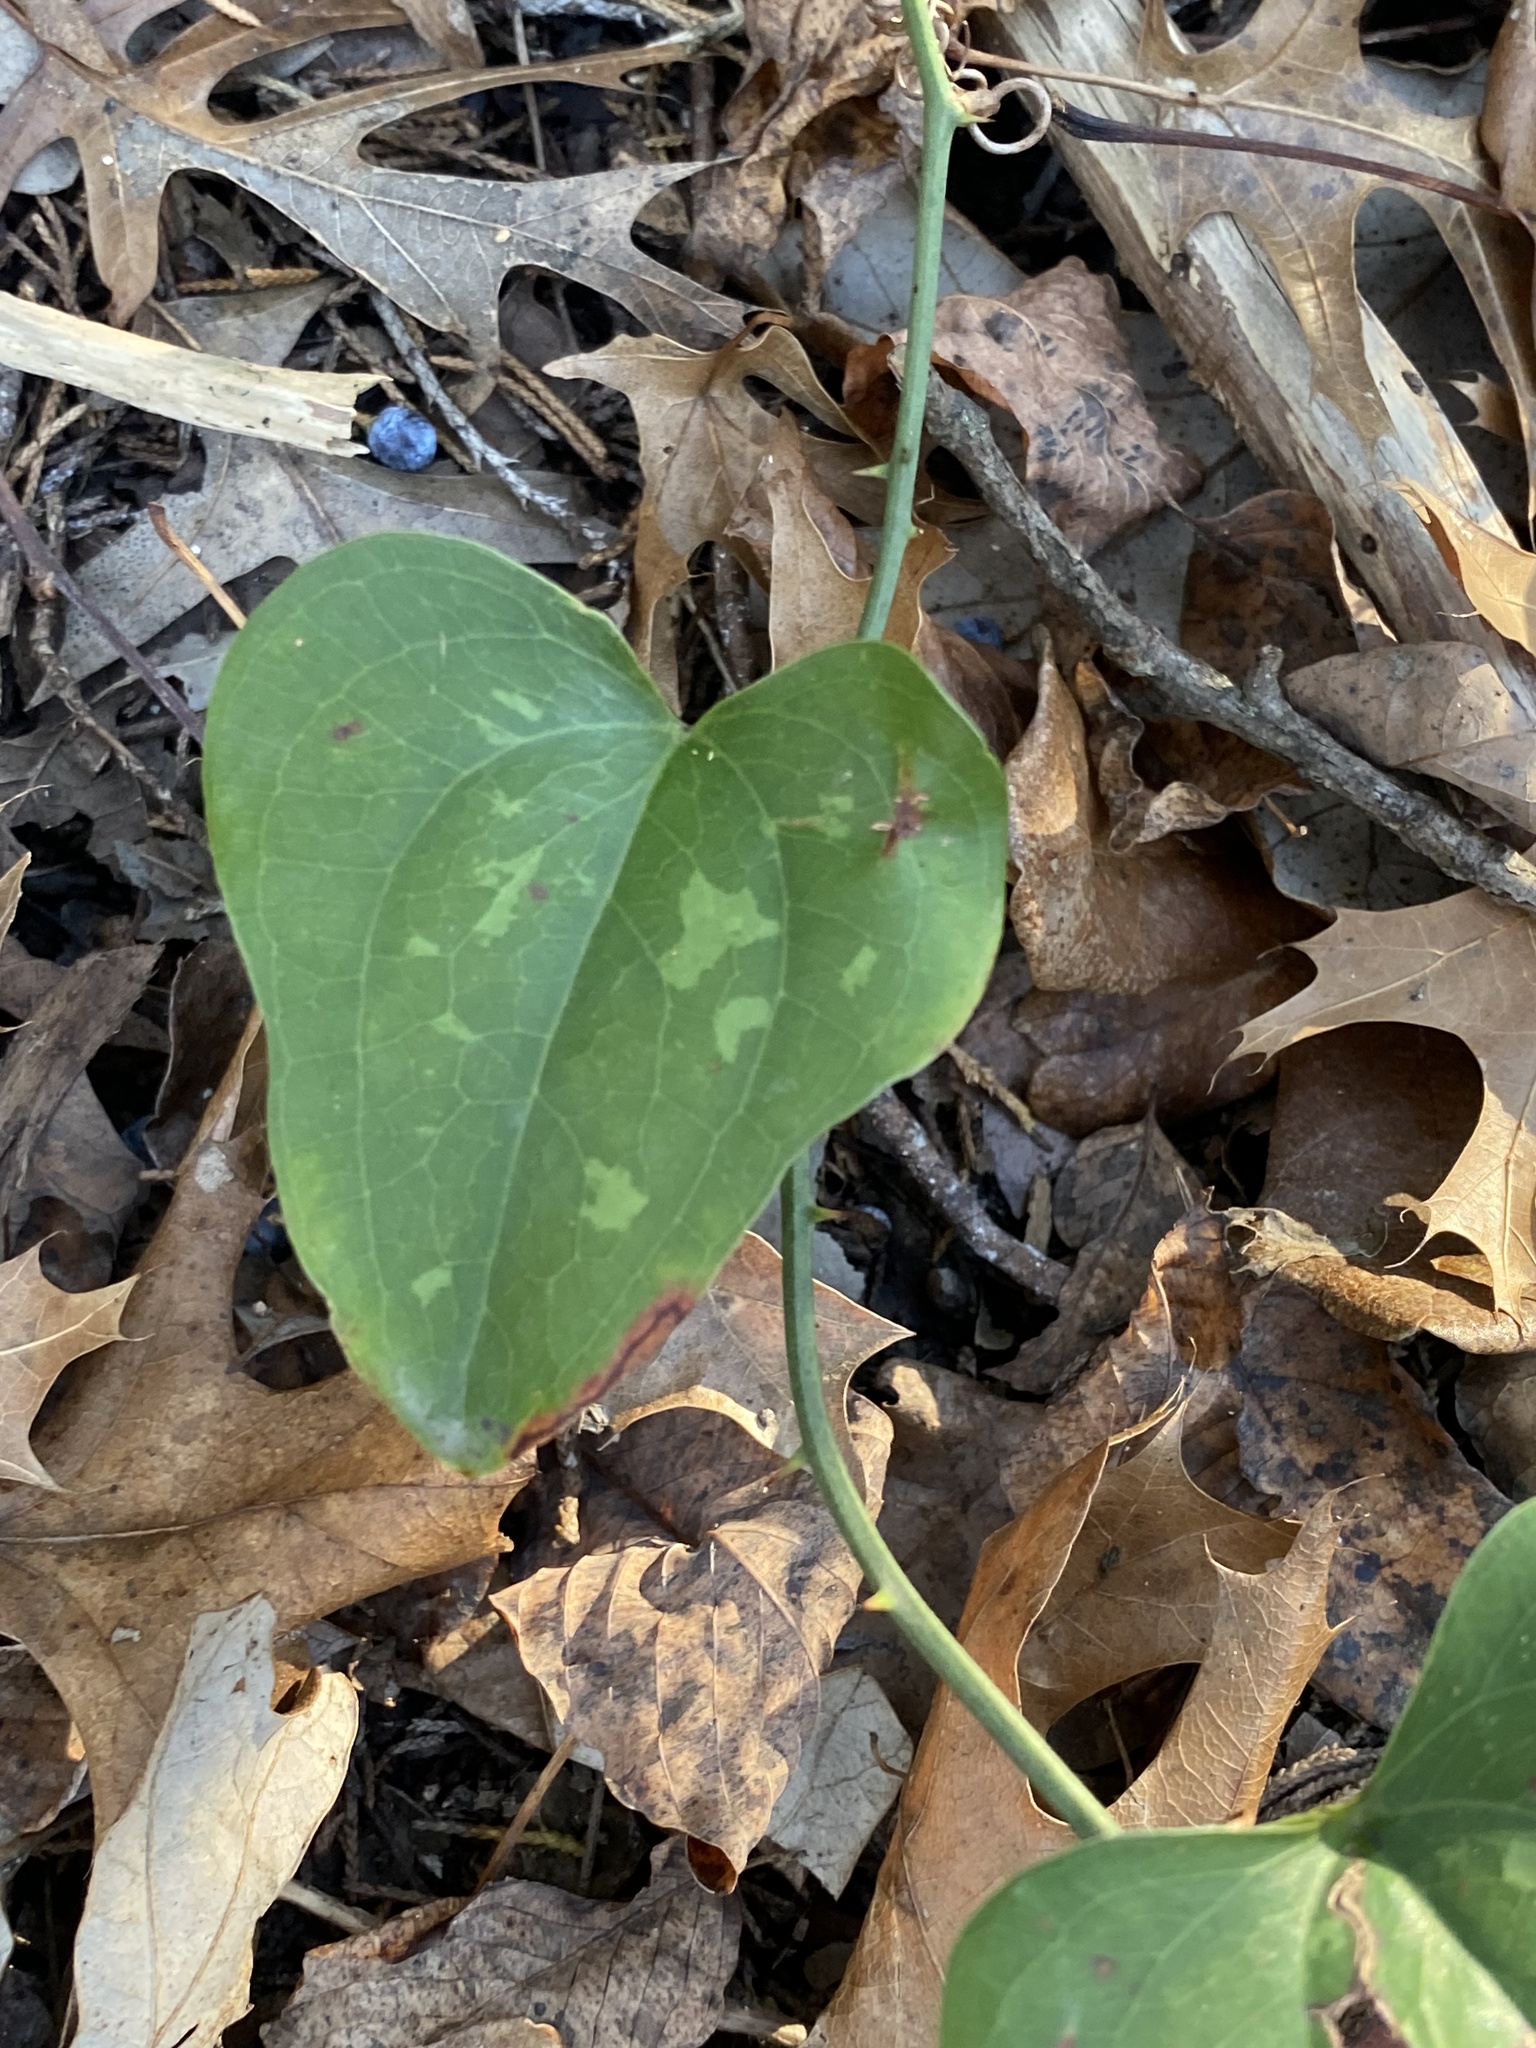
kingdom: Plantae
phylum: Tracheophyta
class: Liliopsida
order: Liliales
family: Smilacaceae
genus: Smilax
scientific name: Smilax bona-nox
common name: Catbrier
